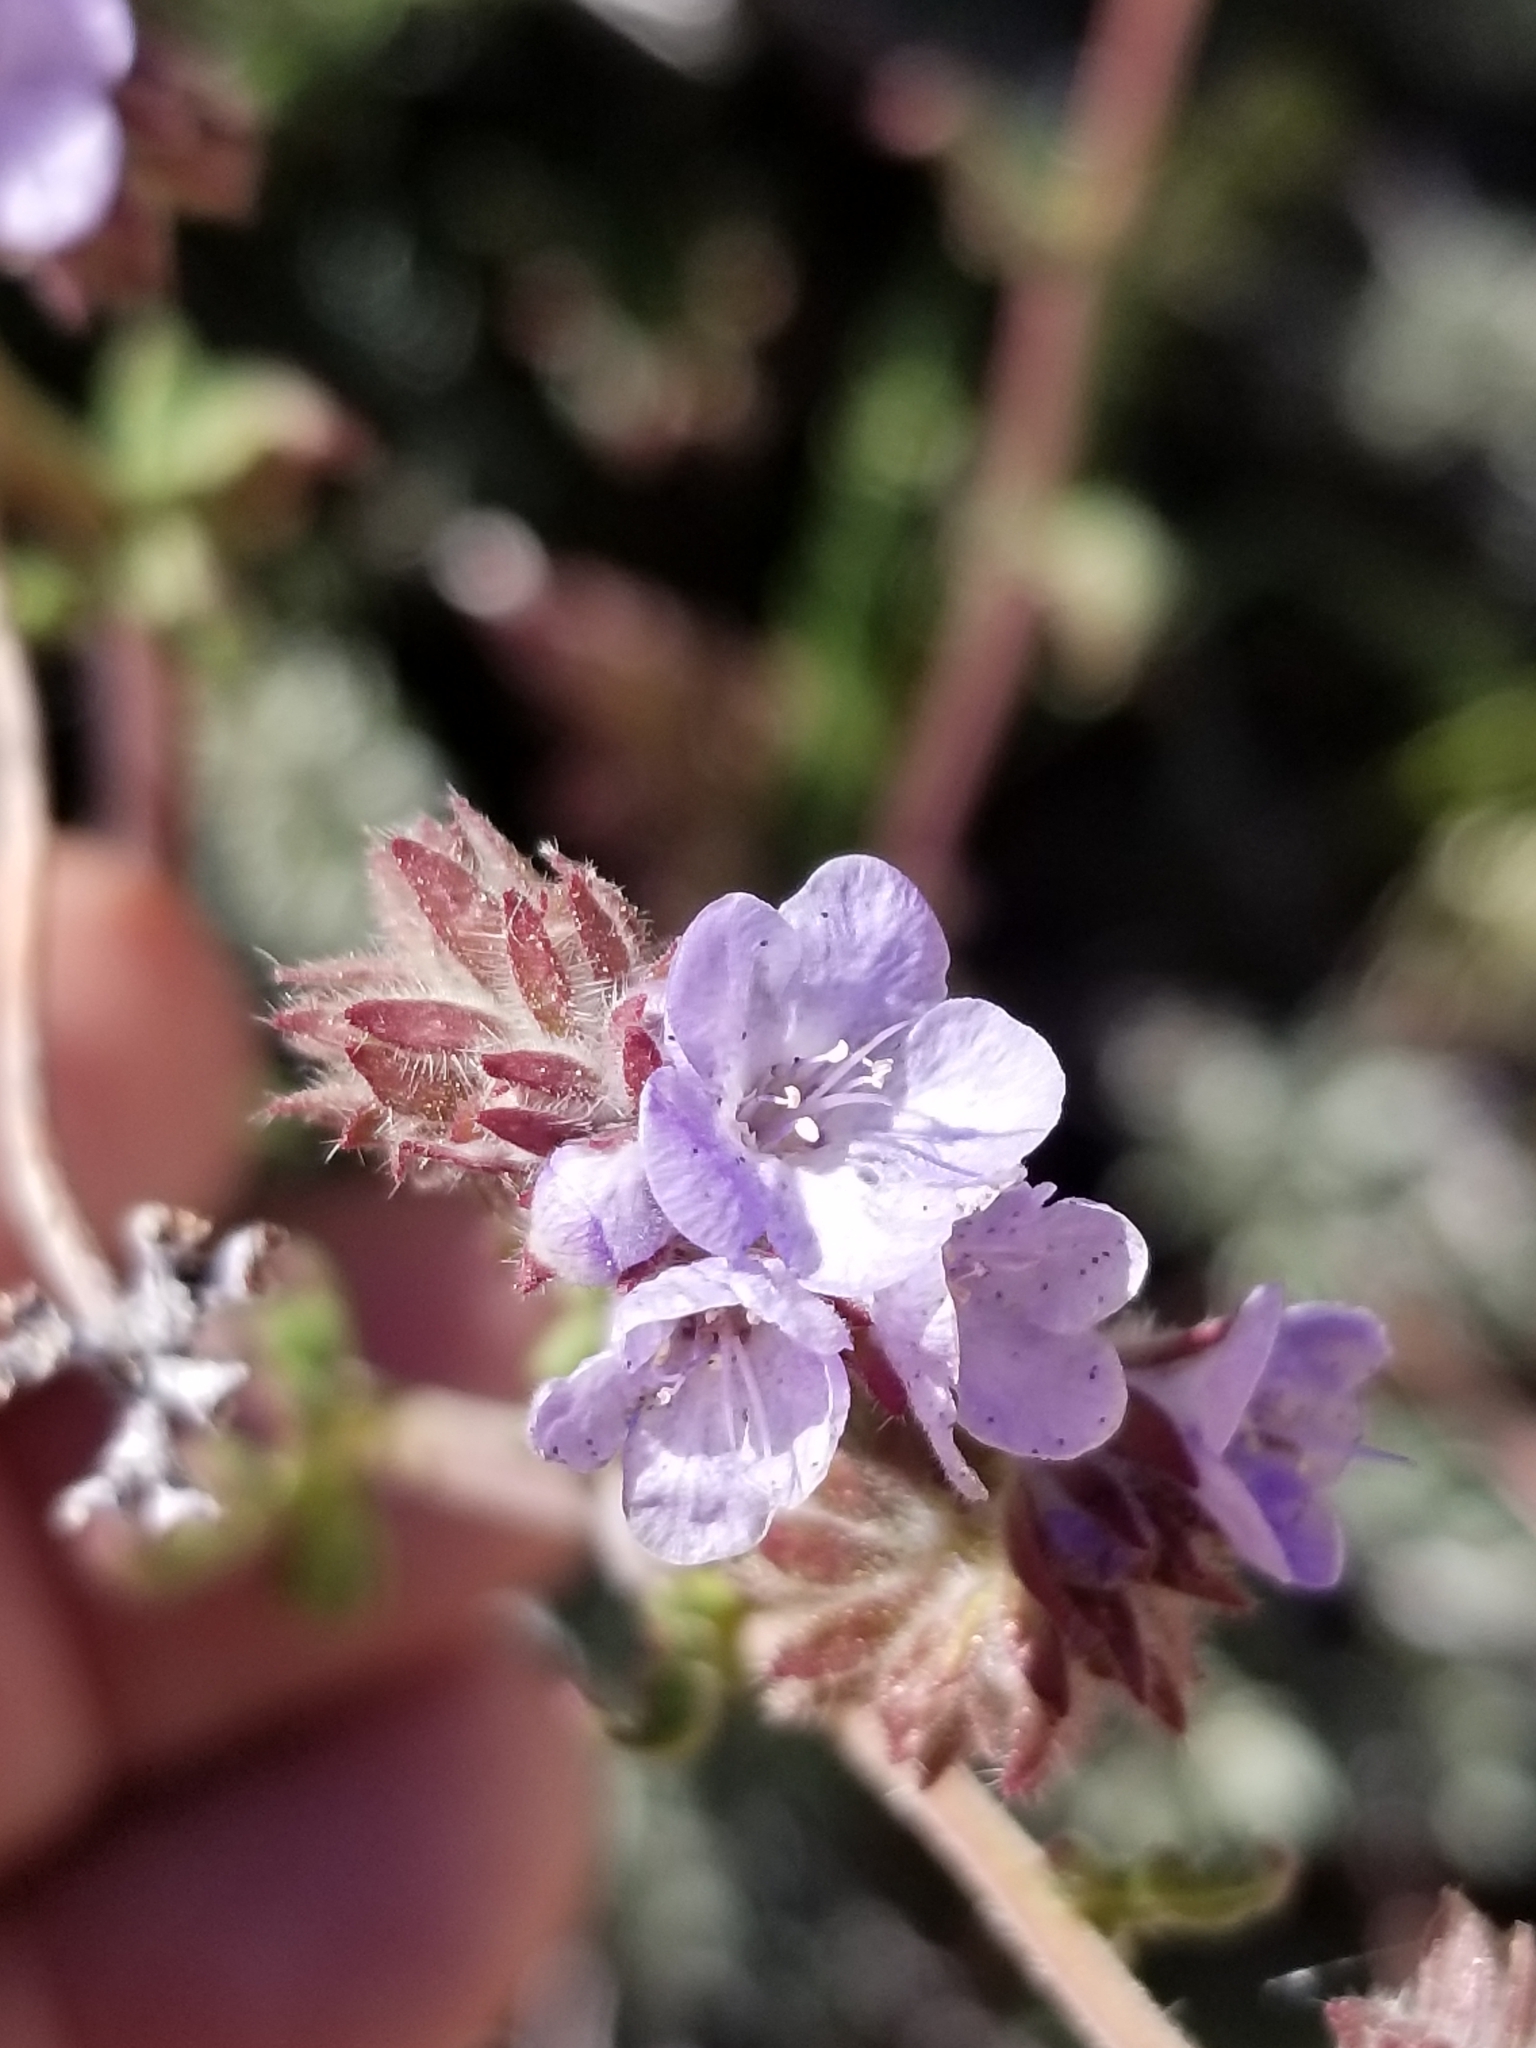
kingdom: Plantae
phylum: Tracheophyta
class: Magnoliopsida
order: Boraginales
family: Hydrophyllaceae
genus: Phacelia
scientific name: Phacelia distans
